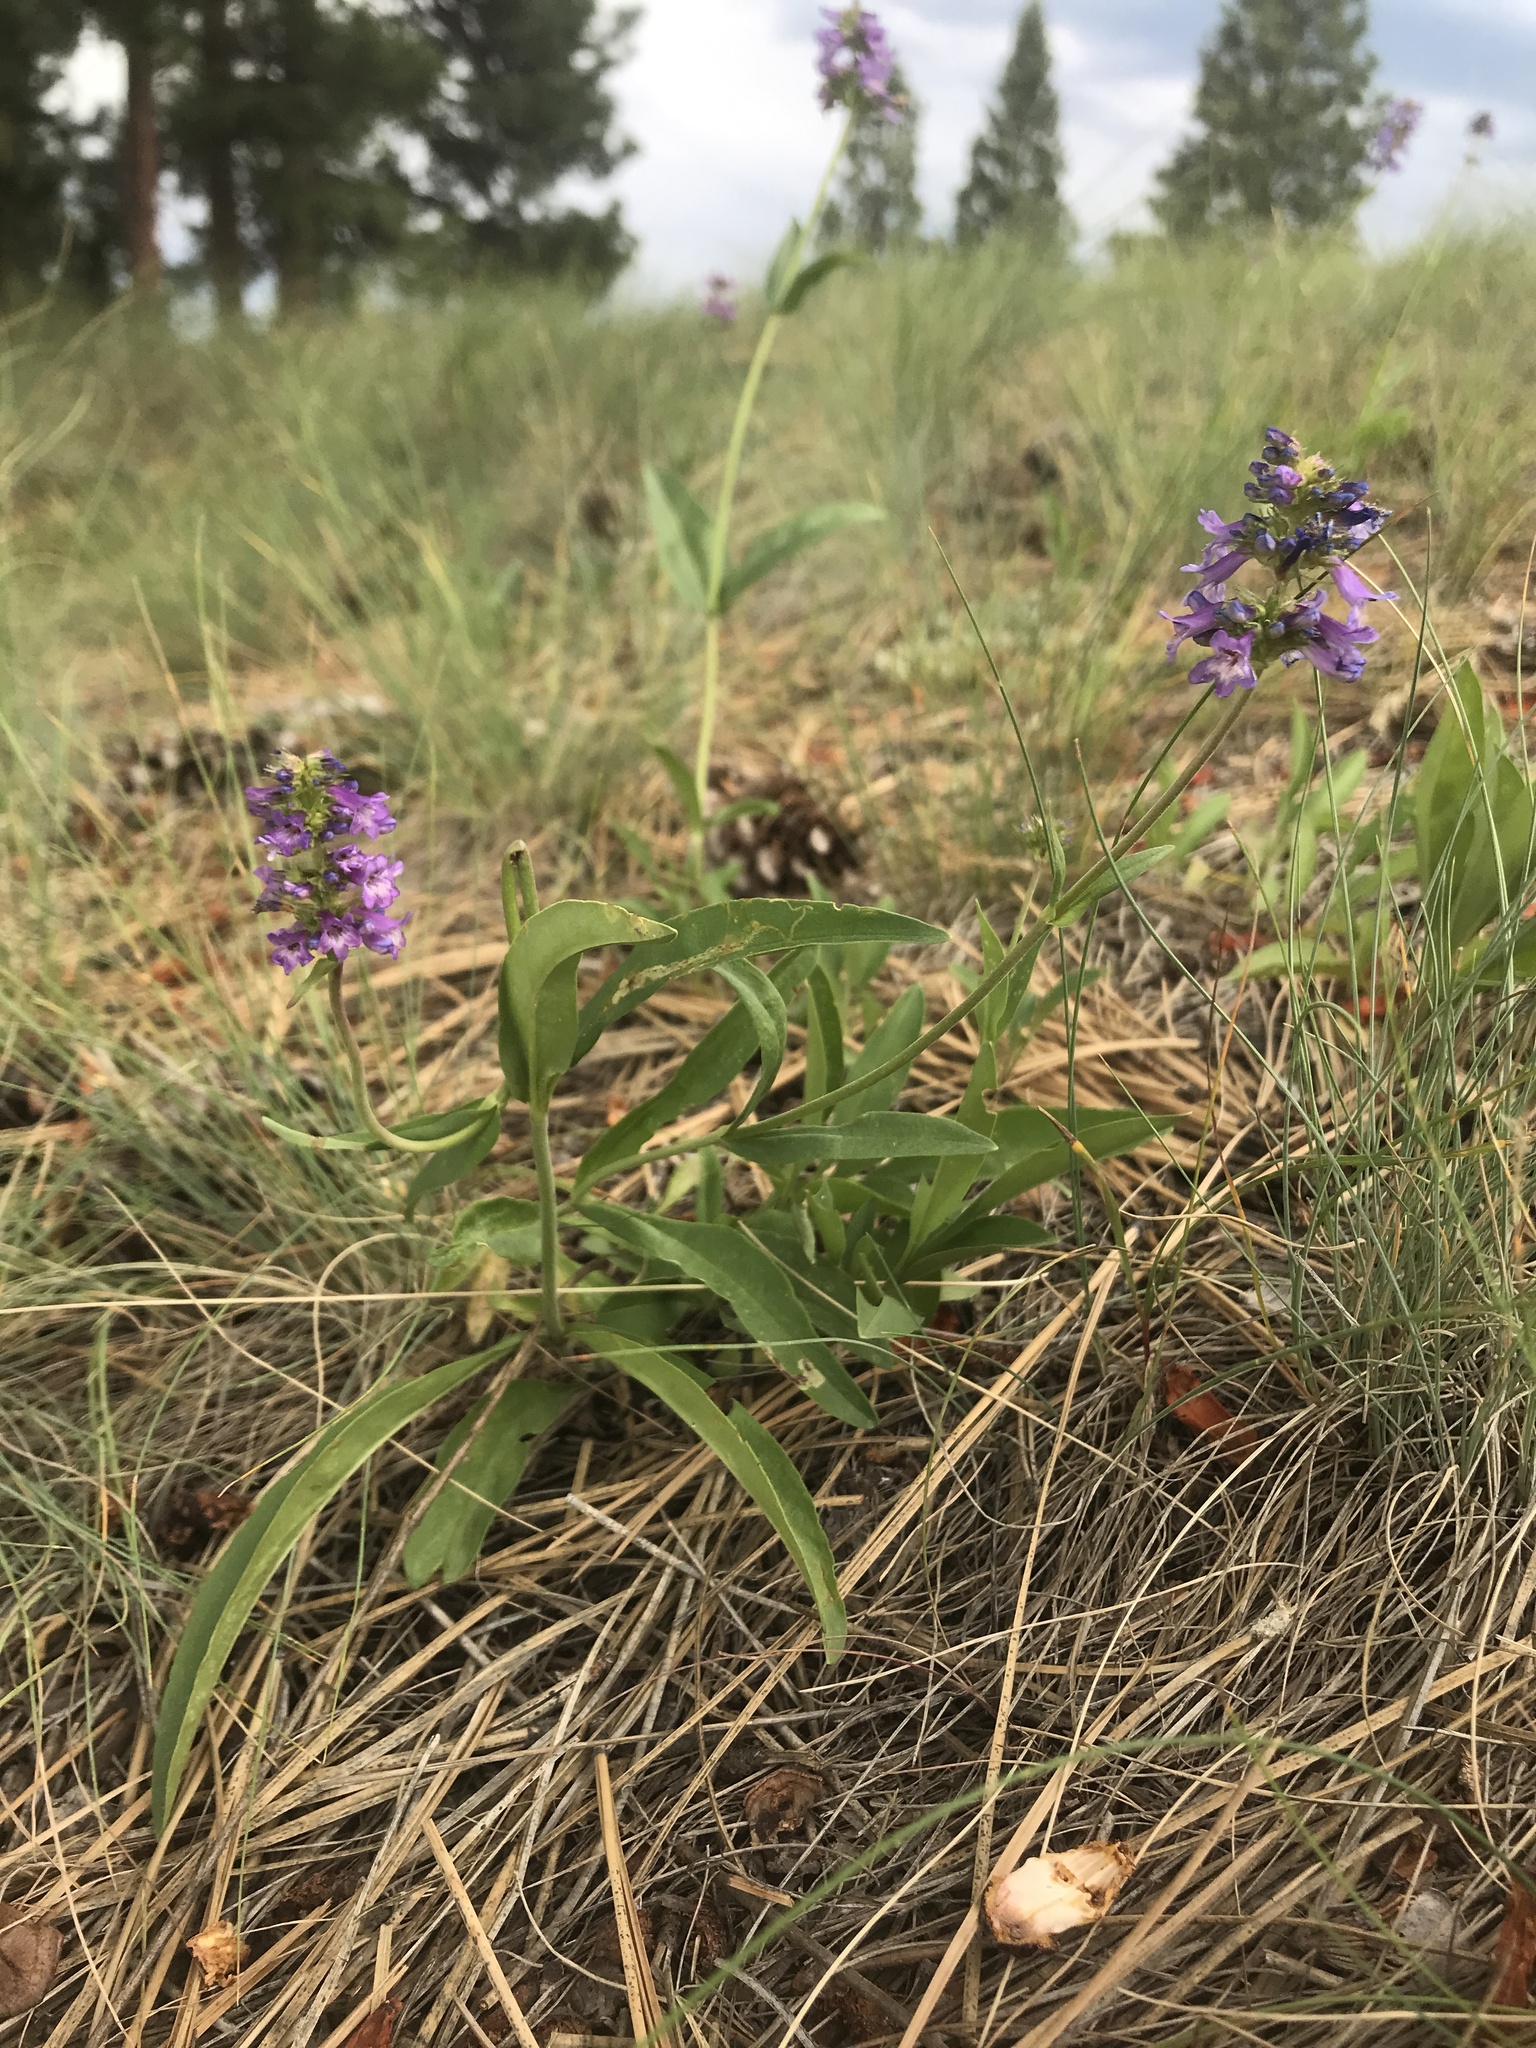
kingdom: Plantae
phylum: Tracheophyta
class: Magnoliopsida
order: Lamiales
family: Plantaginaceae
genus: Penstemon
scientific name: Penstemon procerus
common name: Small-flower penstemon
